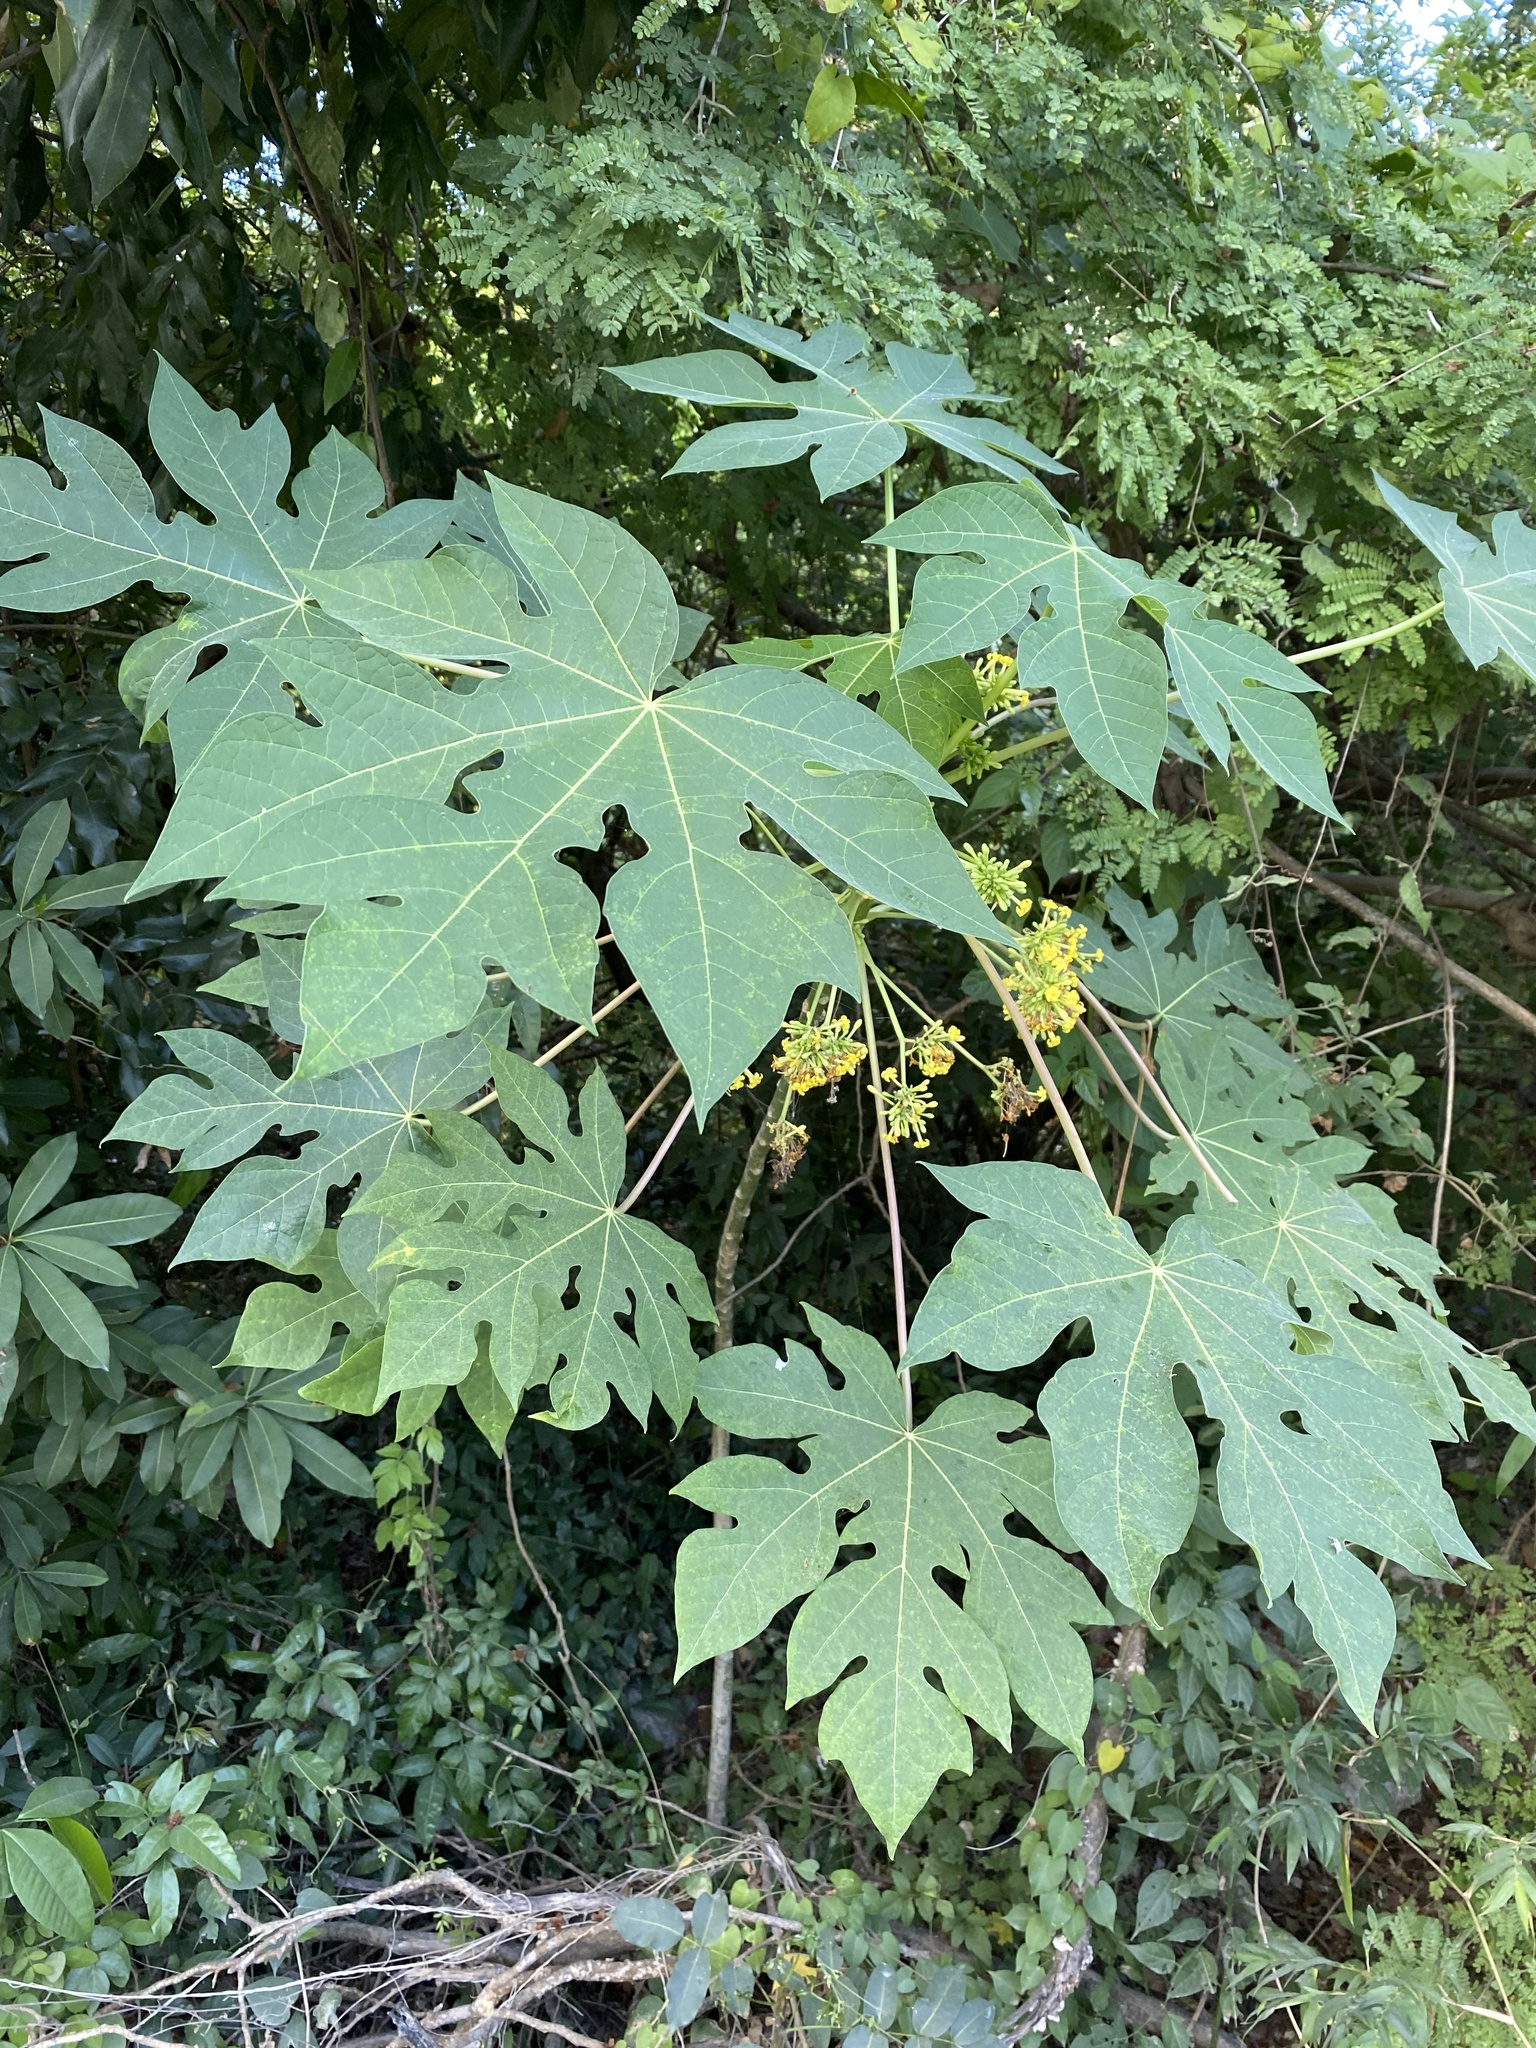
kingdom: Plantae
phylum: Tracheophyta
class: Magnoliopsida
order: Brassicales
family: Caricaceae
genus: Carica
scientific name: Carica papaya
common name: Papaya
